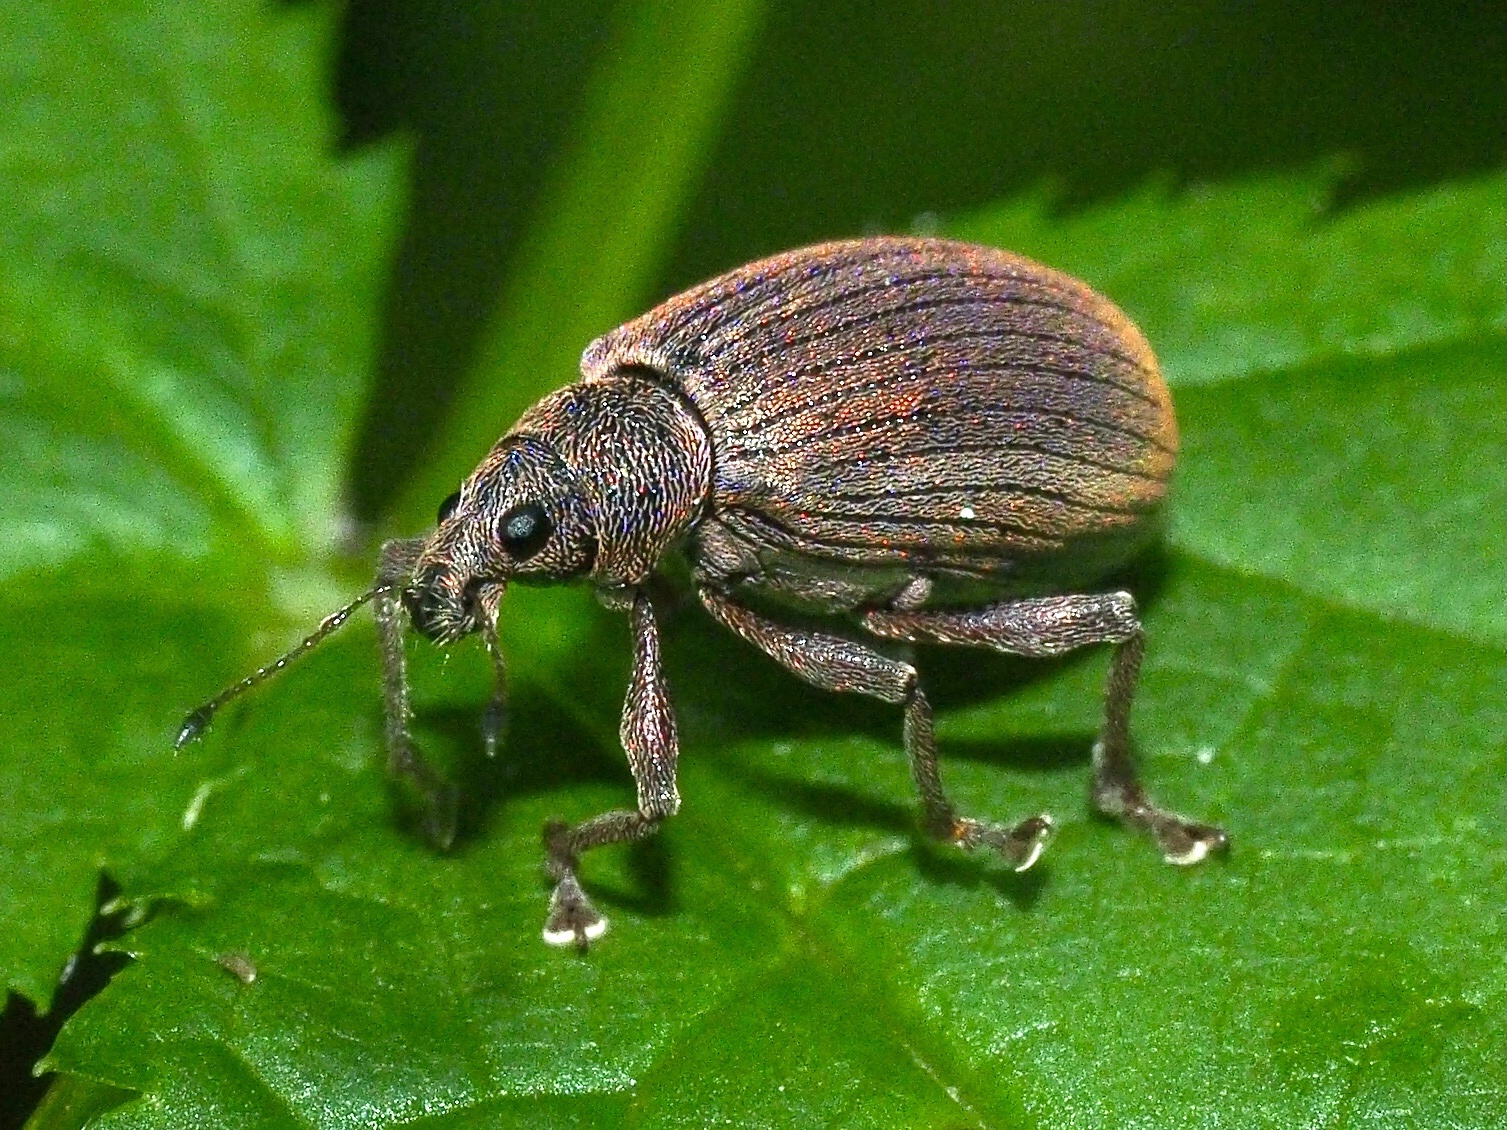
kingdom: Animalia
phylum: Arthropoda
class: Insecta
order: Coleoptera
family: Curculionidae
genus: Polydrusus
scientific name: Polydrusus mollis
